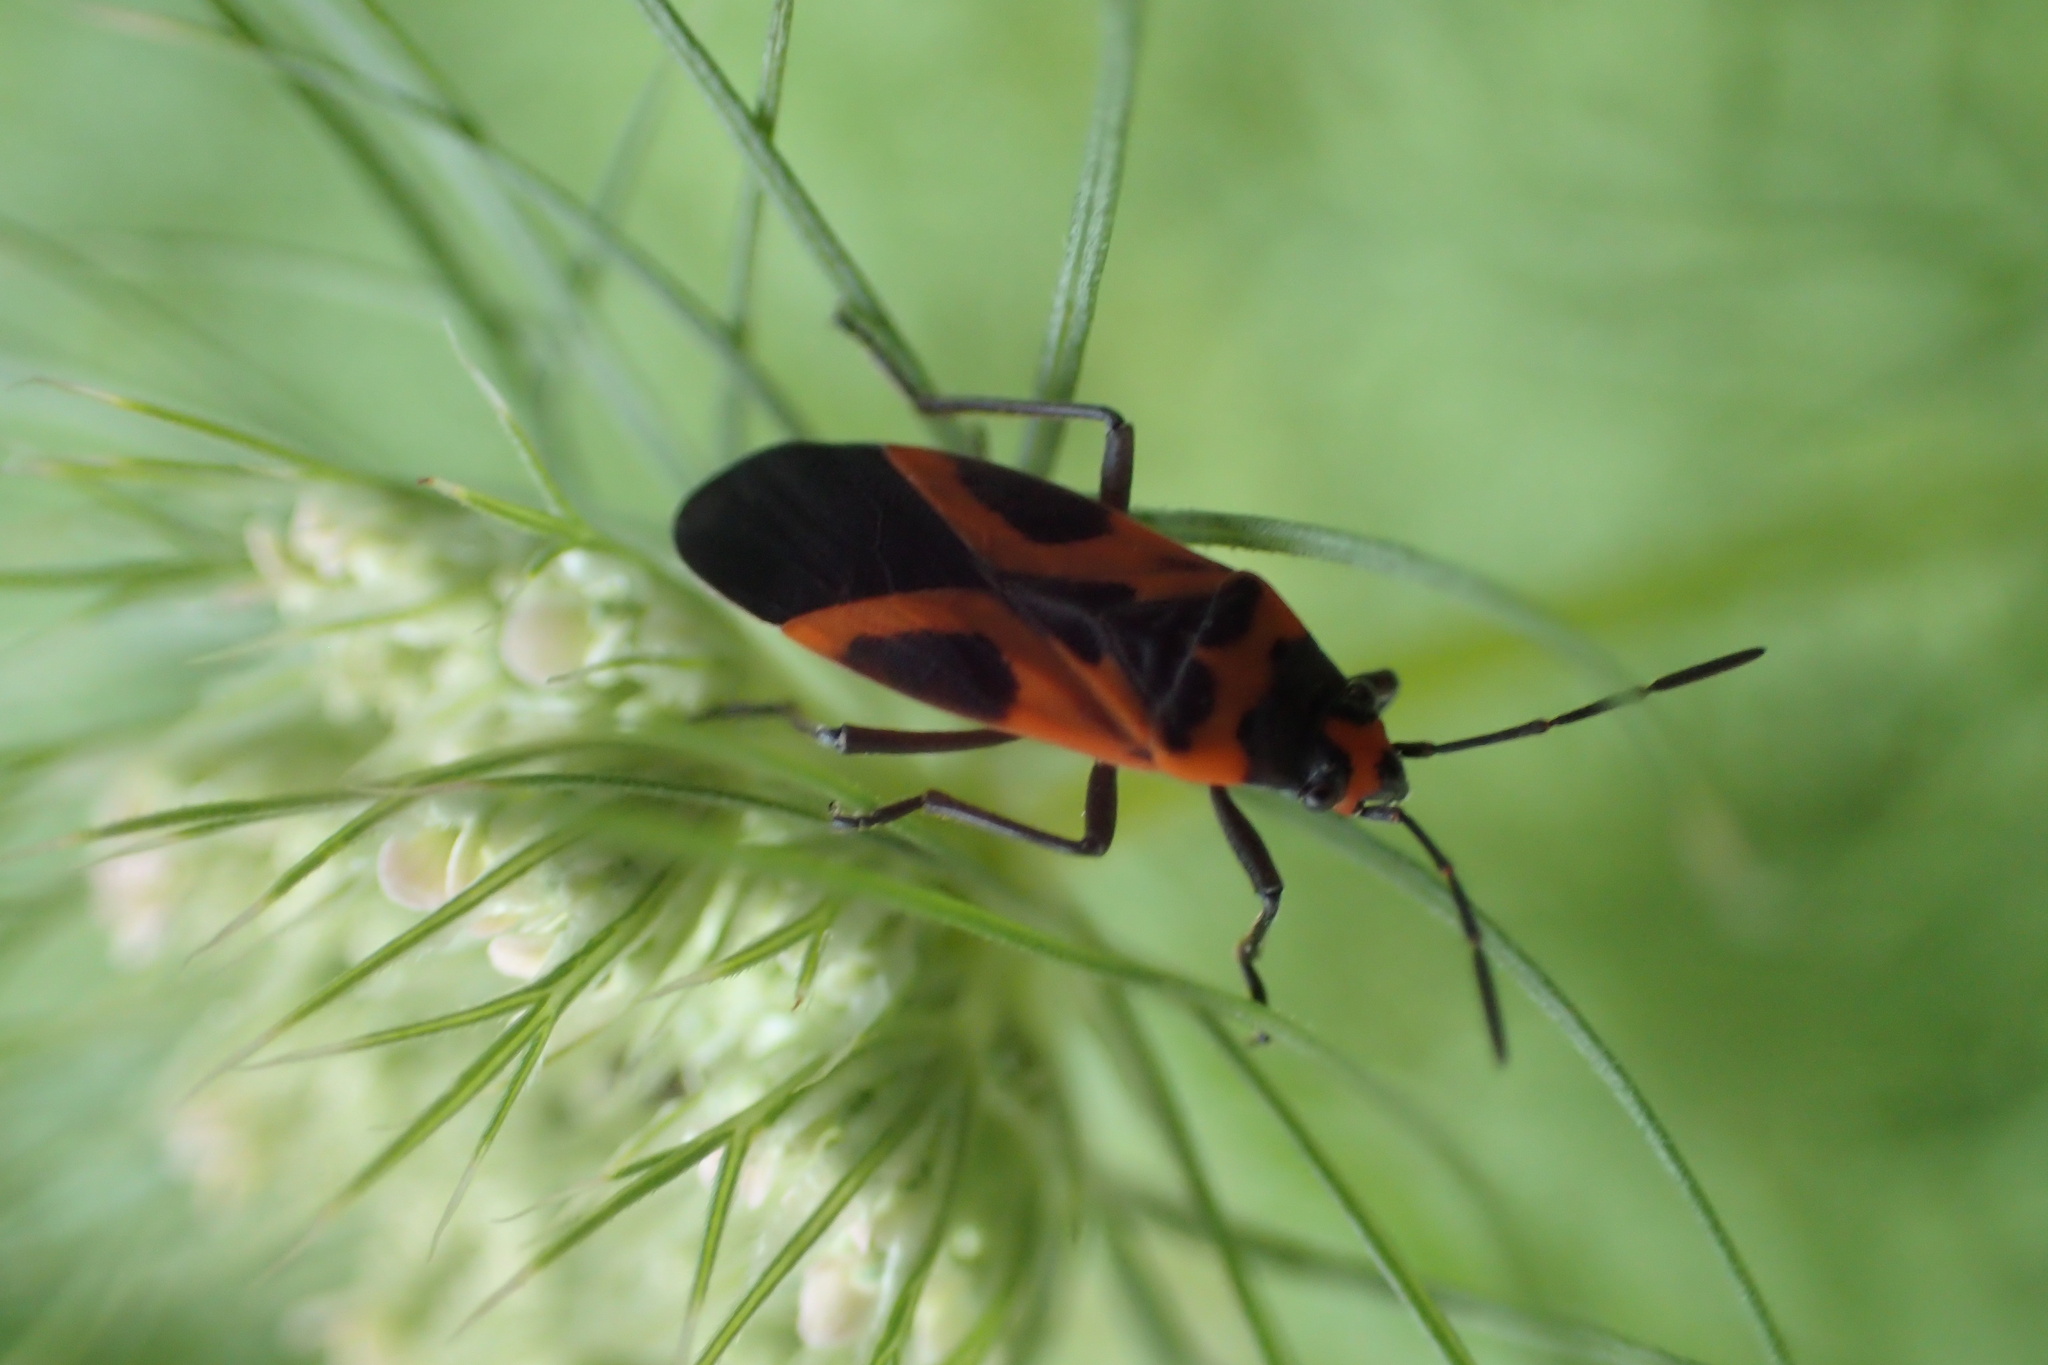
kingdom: Animalia
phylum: Arthropoda
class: Insecta
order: Hemiptera
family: Lygaeidae
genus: Lygaeus
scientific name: Lygaeus turcicus
